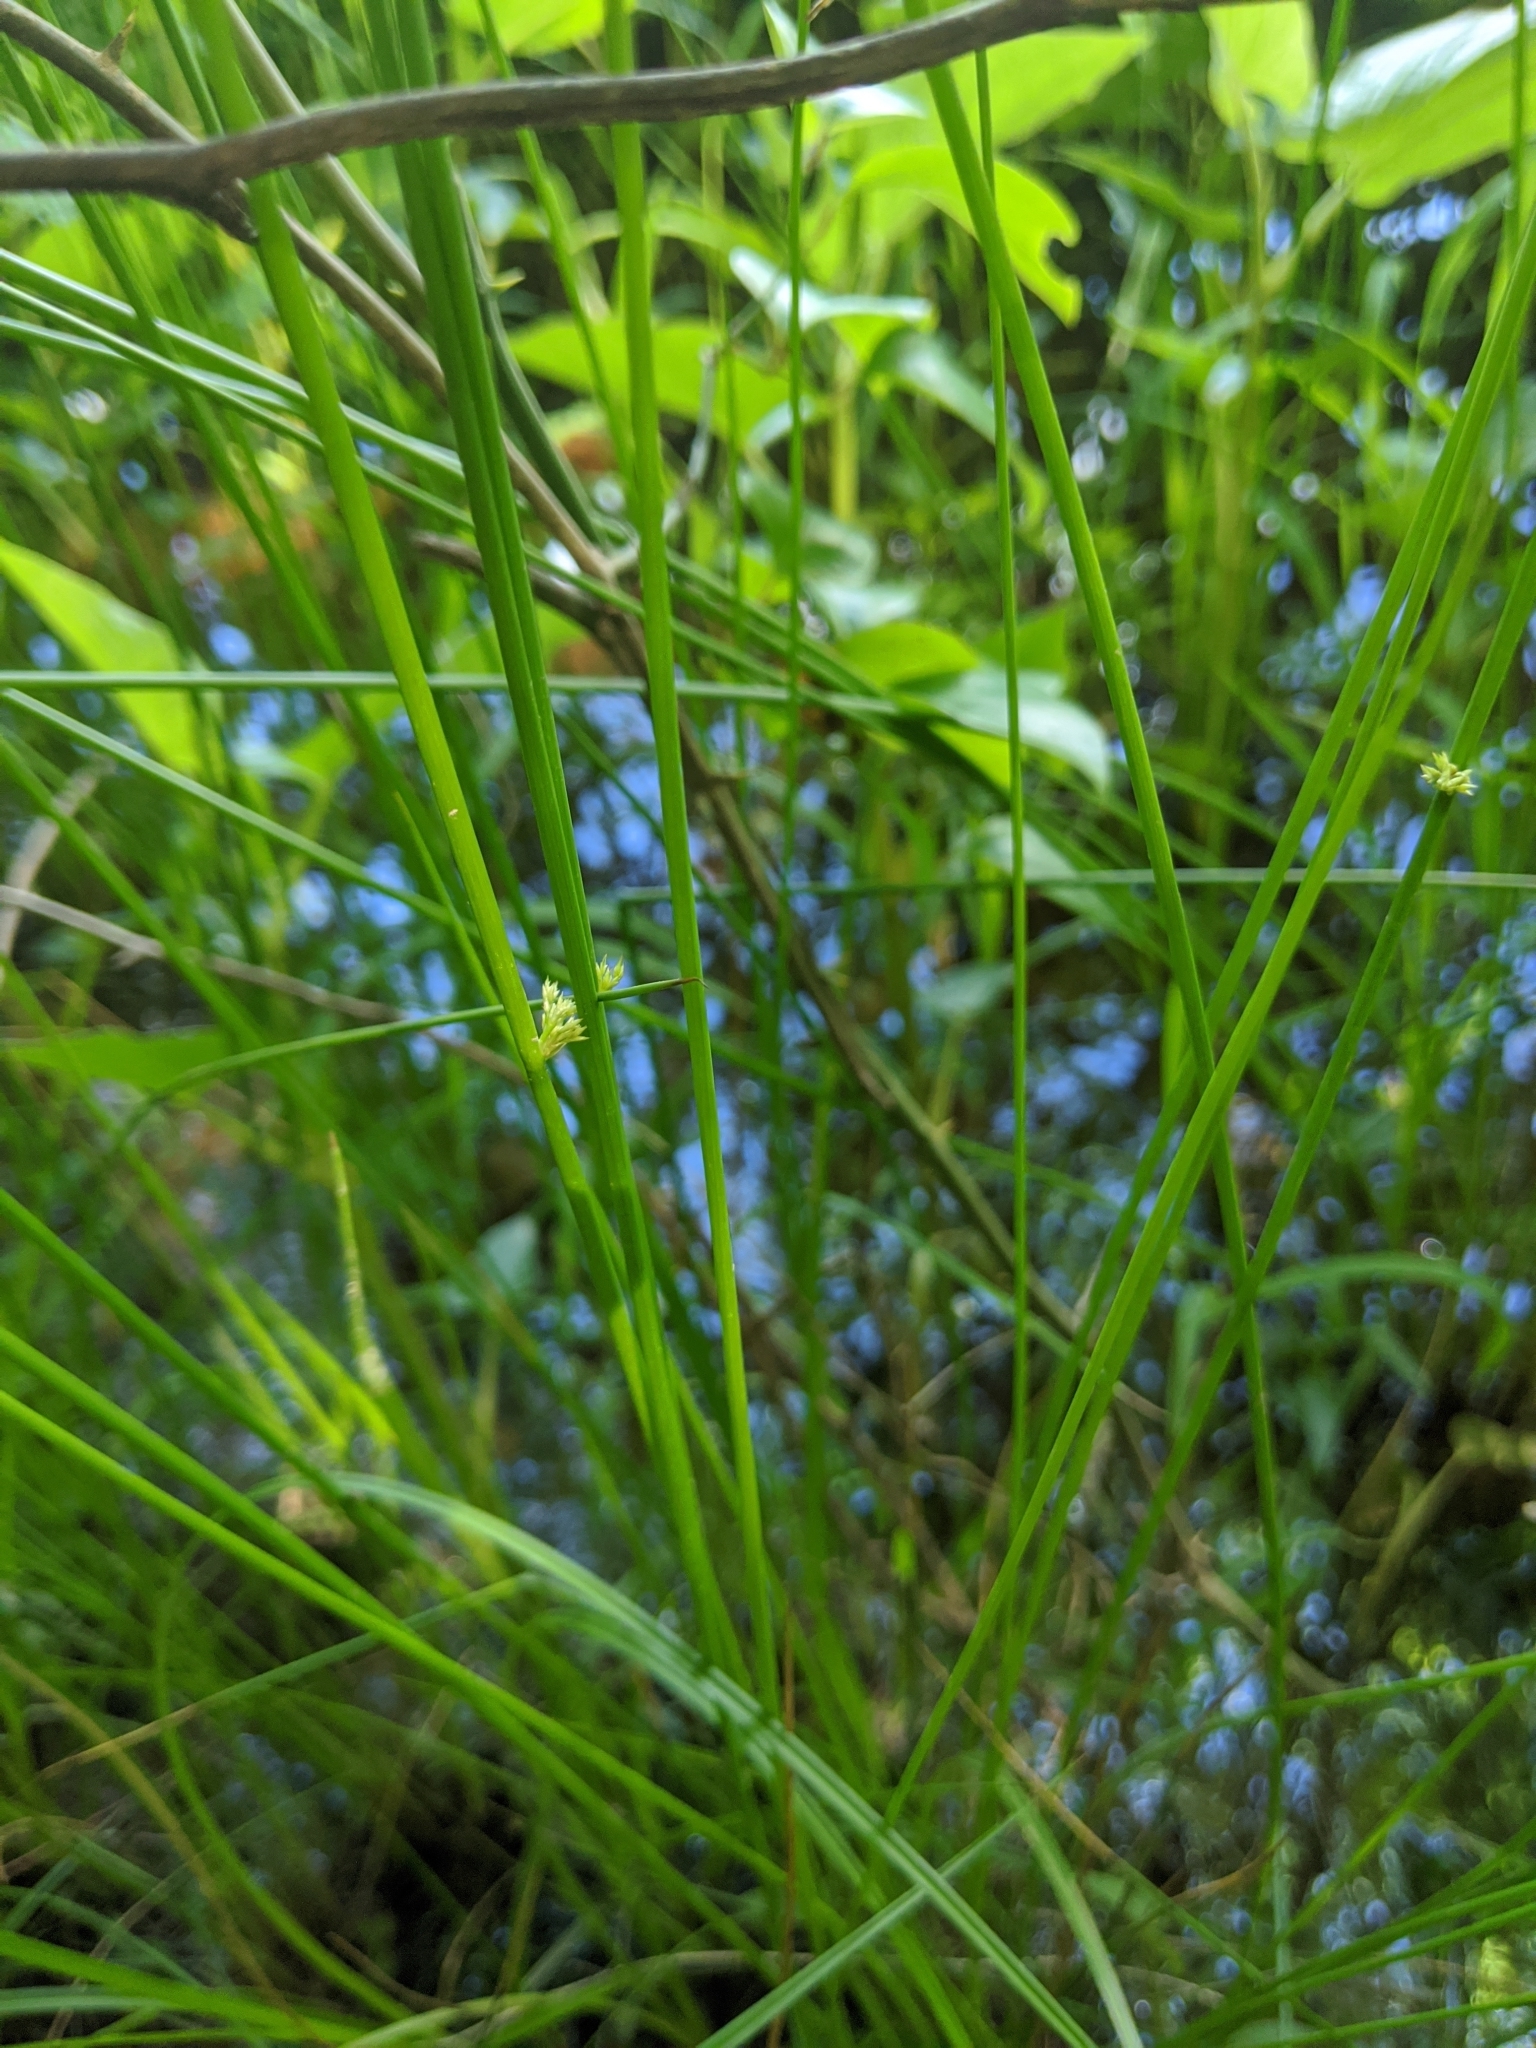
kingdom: Plantae
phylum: Tracheophyta
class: Liliopsida
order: Poales
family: Juncaceae
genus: Juncus
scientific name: Juncus effusus
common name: Soft rush
